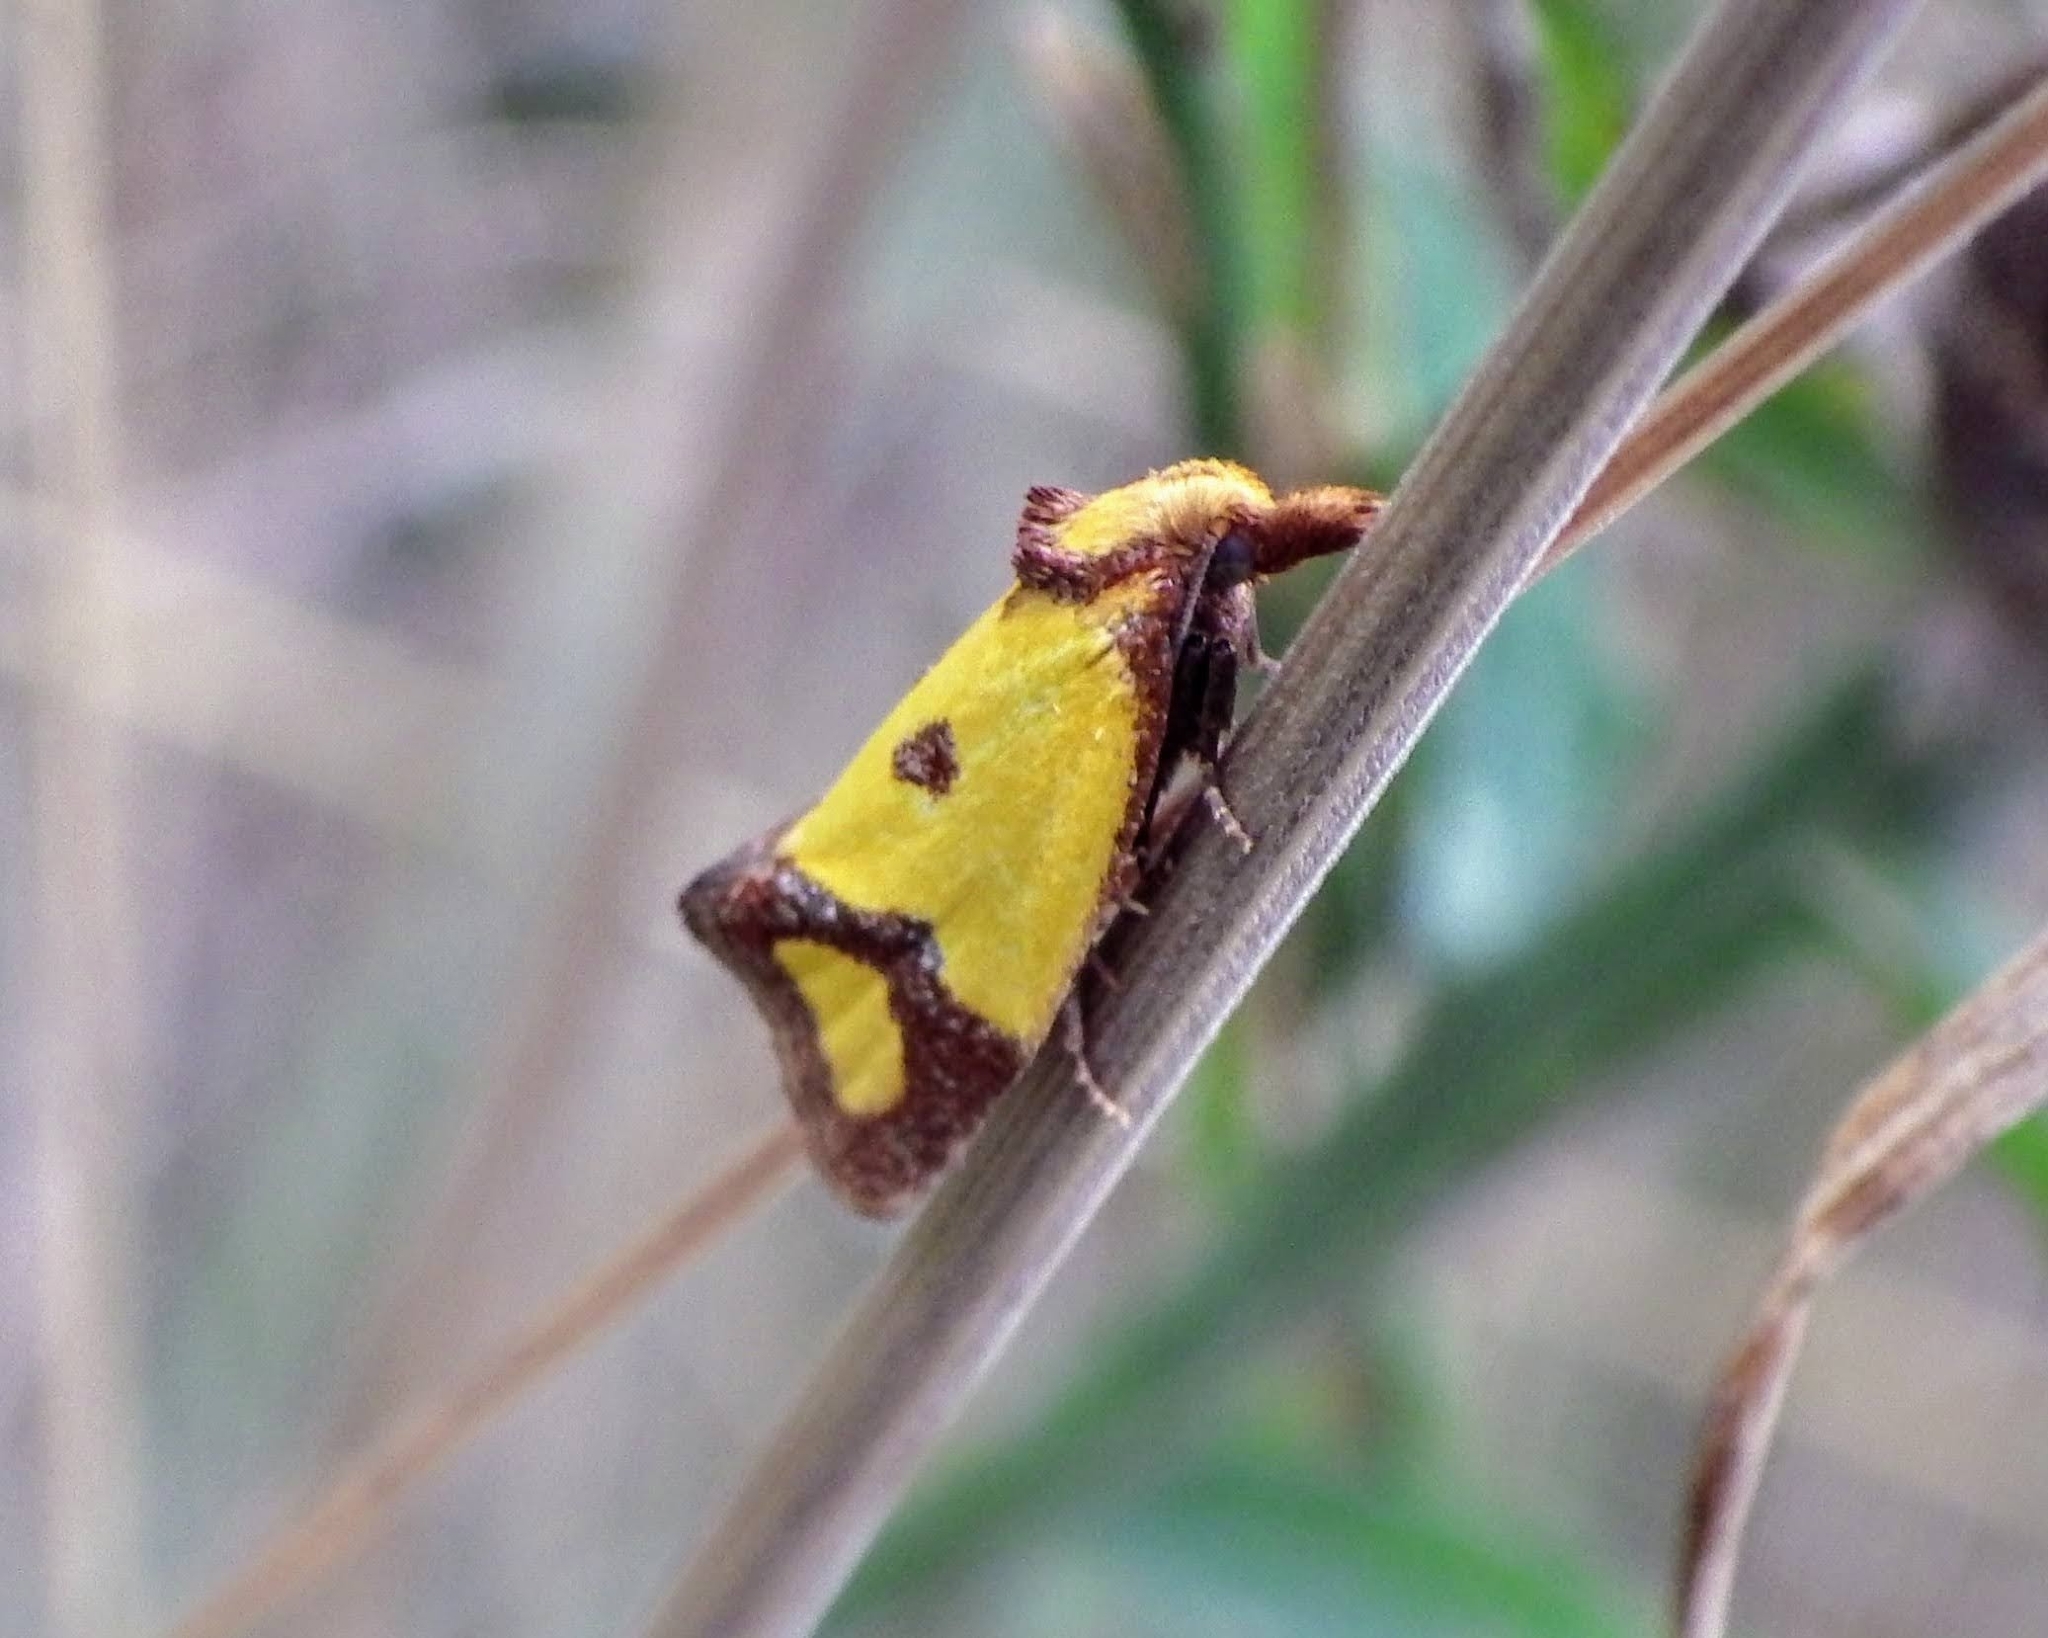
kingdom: Animalia
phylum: Arthropoda
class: Insecta
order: Lepidoptera
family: Tortricidae
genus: Agapeta
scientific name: Agapeta zoegana
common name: Sulfur knapweed root moth
